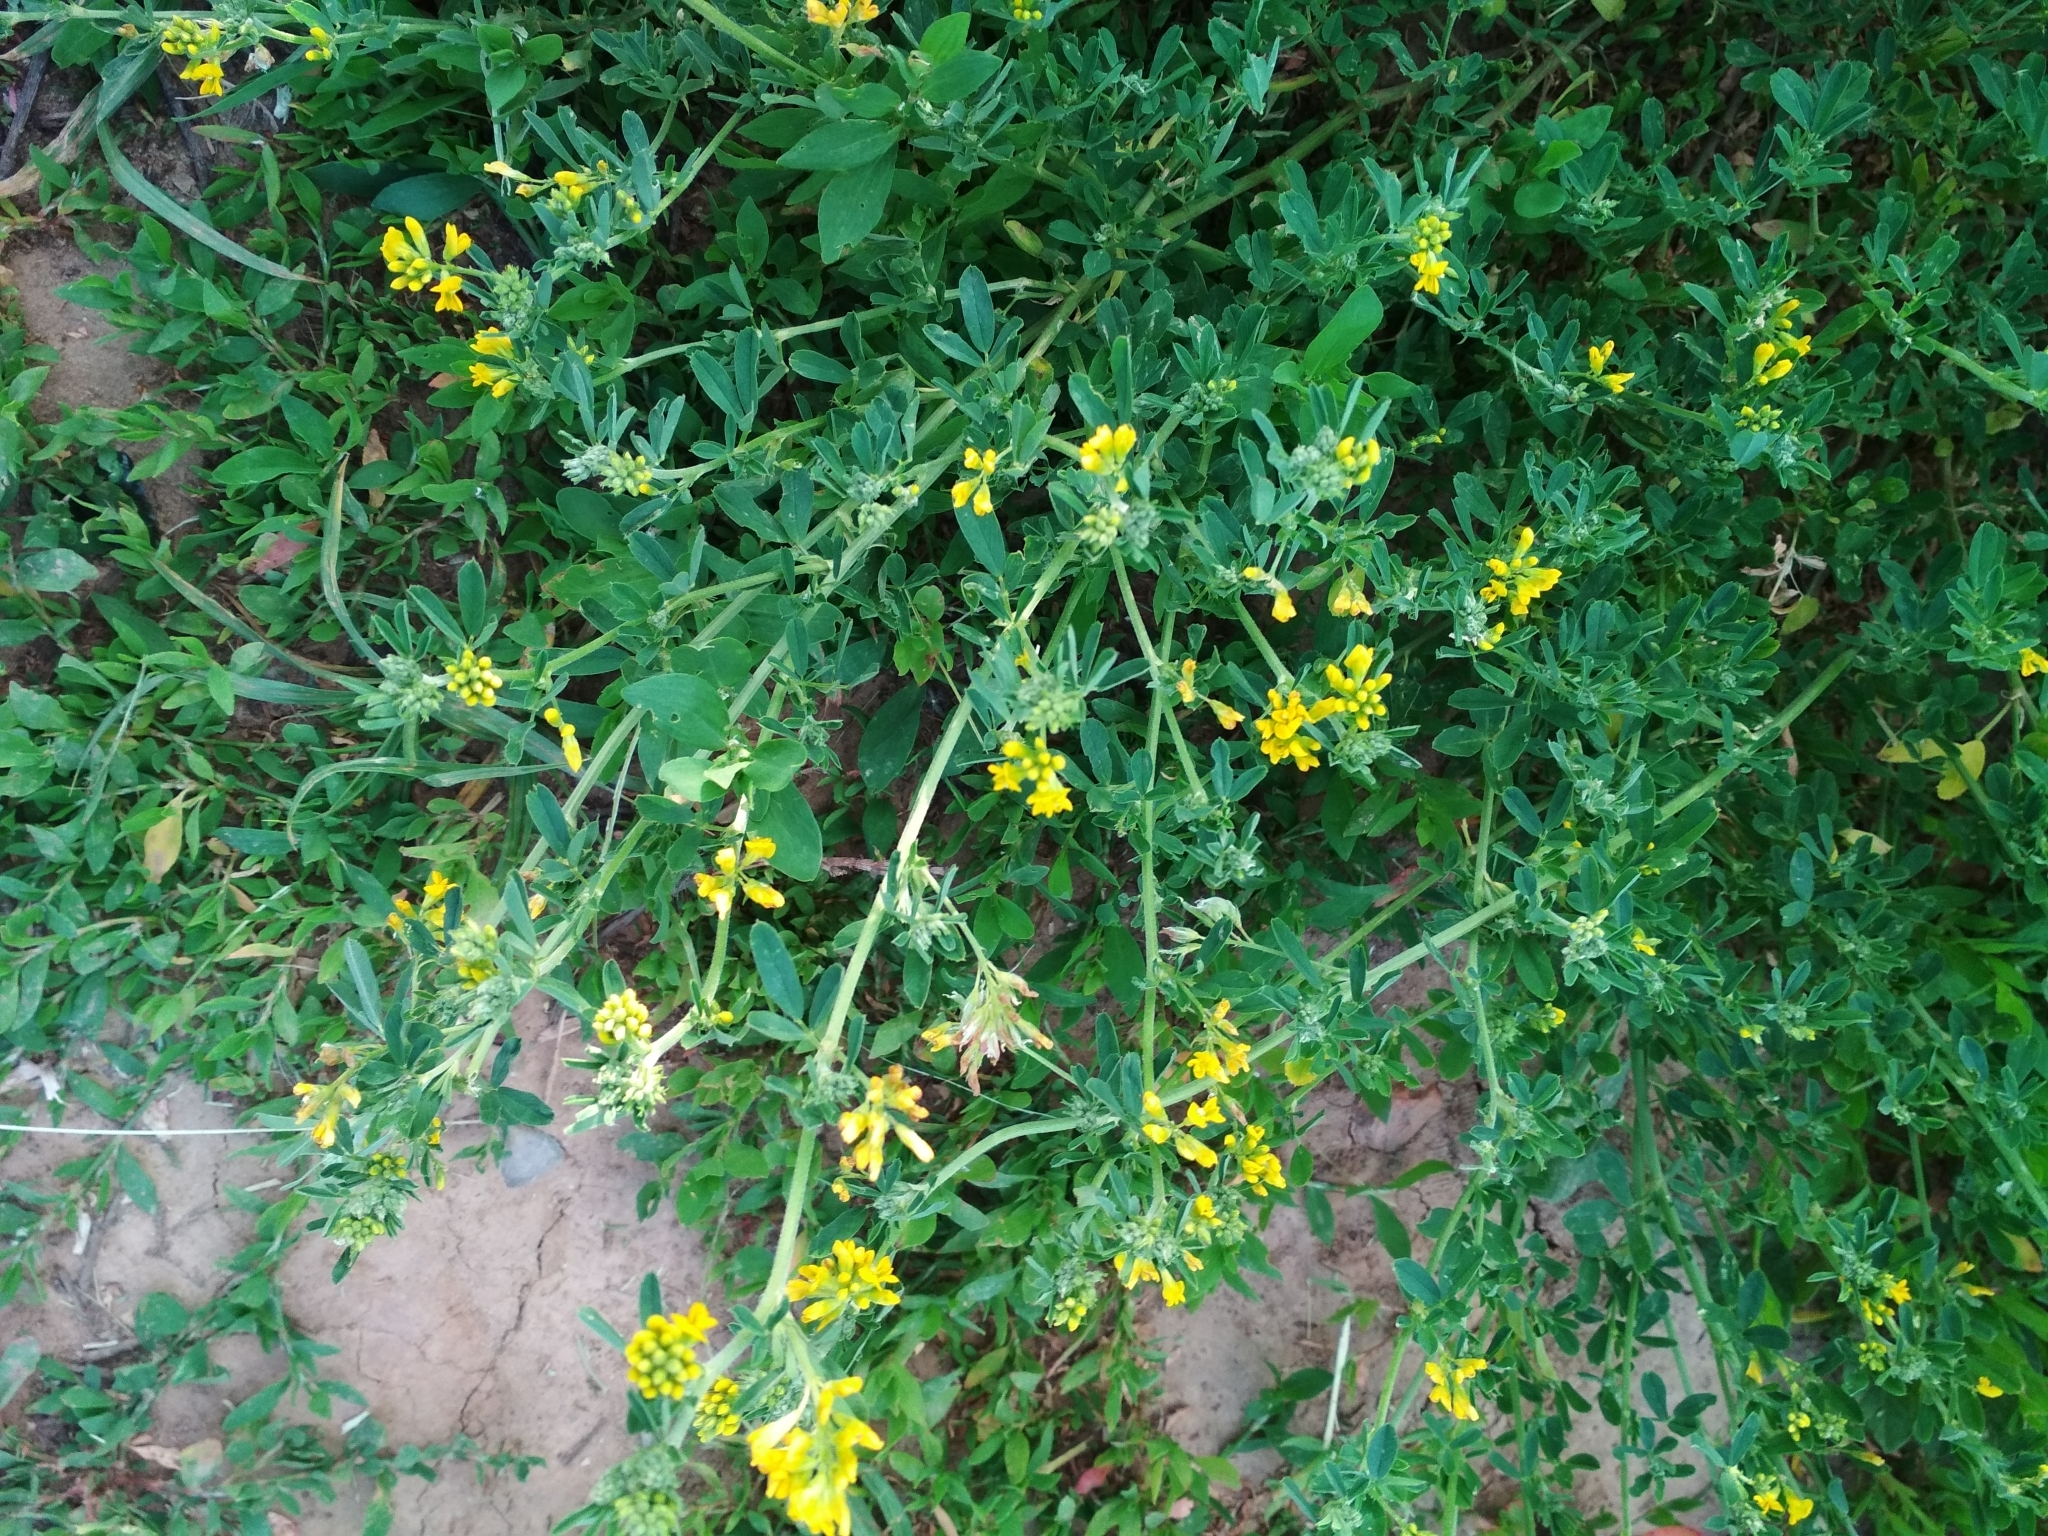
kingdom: Plantae
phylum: Tracheophyta
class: Magnoliopsida
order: Fabales
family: Fabaceae
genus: Medicago
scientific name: Medicago falcata
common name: Sickle medick
